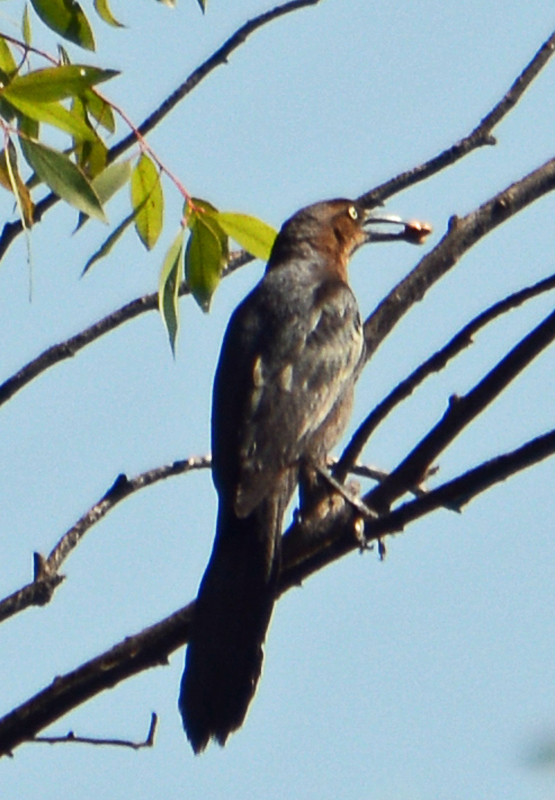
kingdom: Animalia
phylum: Chordata
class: Aves
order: Passeriformes
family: Icteridae
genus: Quiscalus
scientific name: Quiscalus mexicanus
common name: Great-tailed grackle
